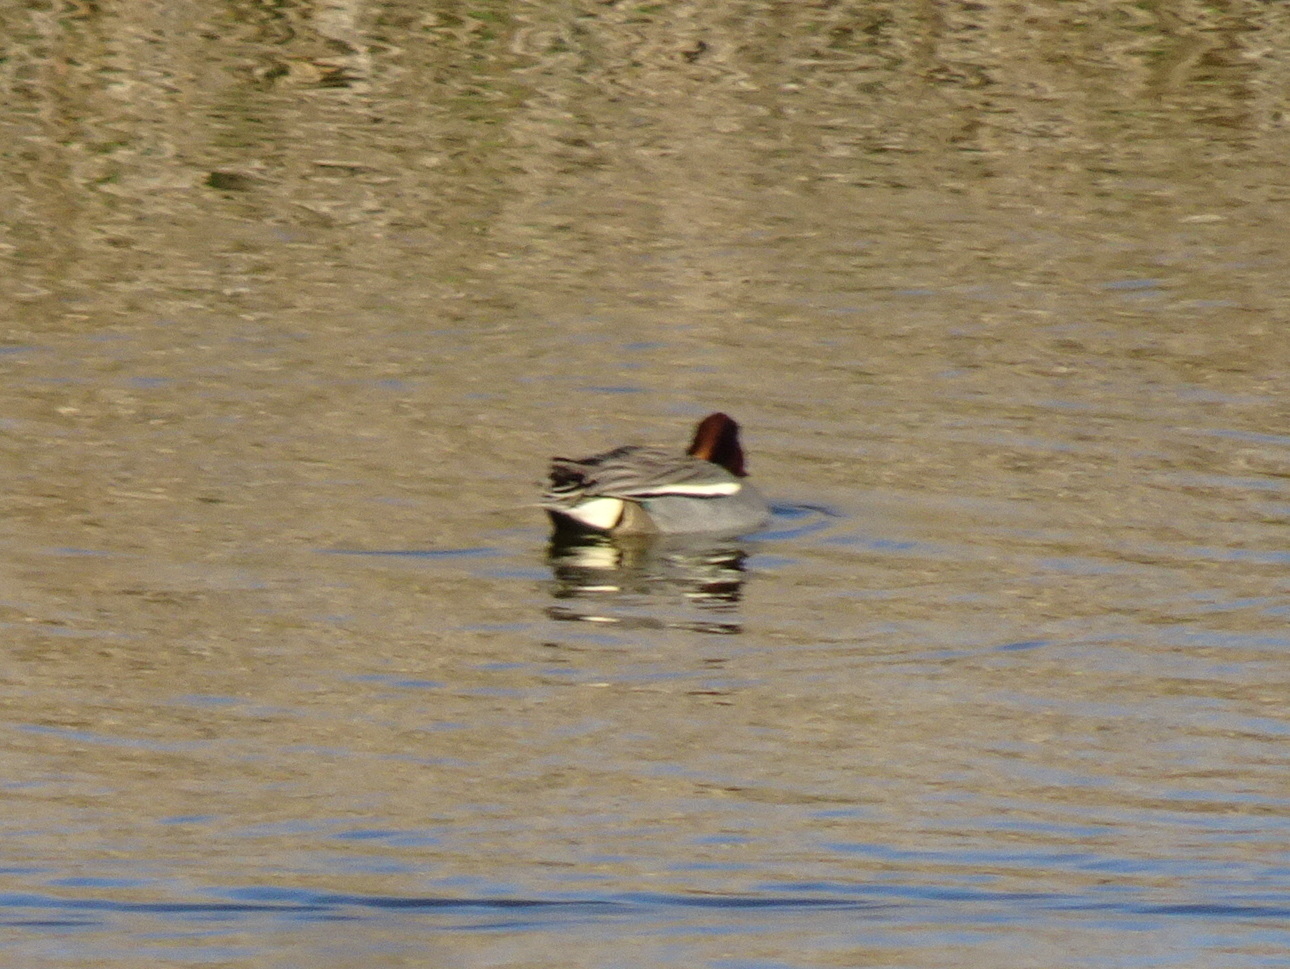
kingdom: Animalia
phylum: Chordata
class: Aves
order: Anseriformes
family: Anatidae
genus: Anas
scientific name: Anas crecca
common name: Eurasian teal
